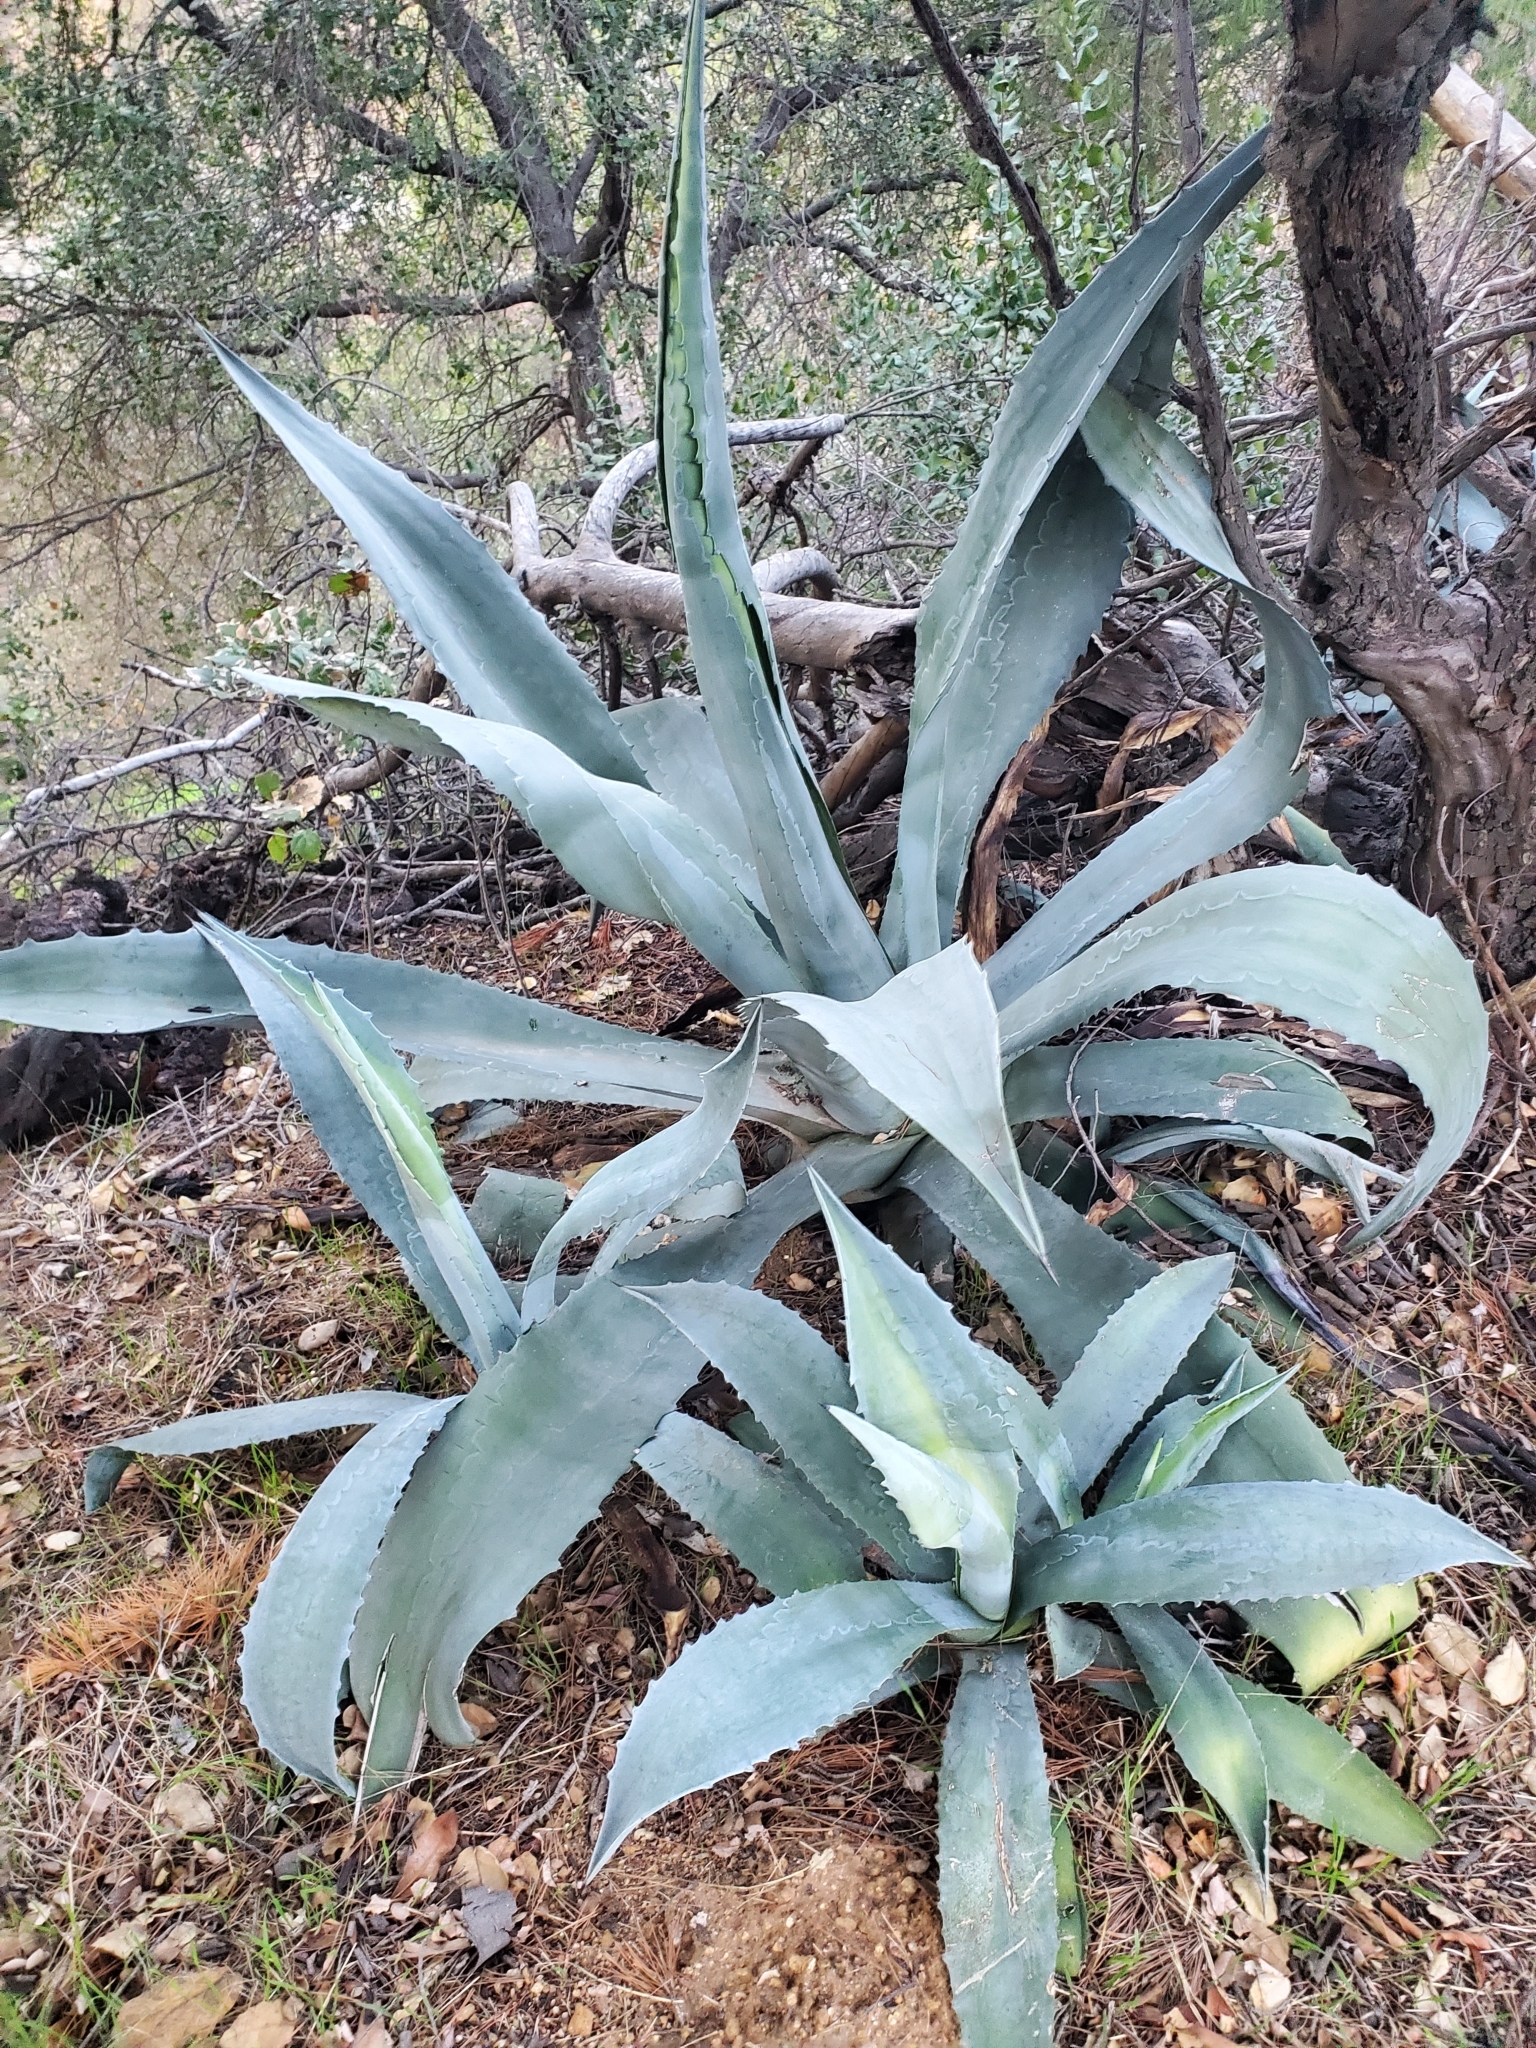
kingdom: Plantae
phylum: Tracheophyta
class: Liliopsida
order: Asparagales
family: Asparagaceae
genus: Agave
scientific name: Agave americana
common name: Centuryplant
